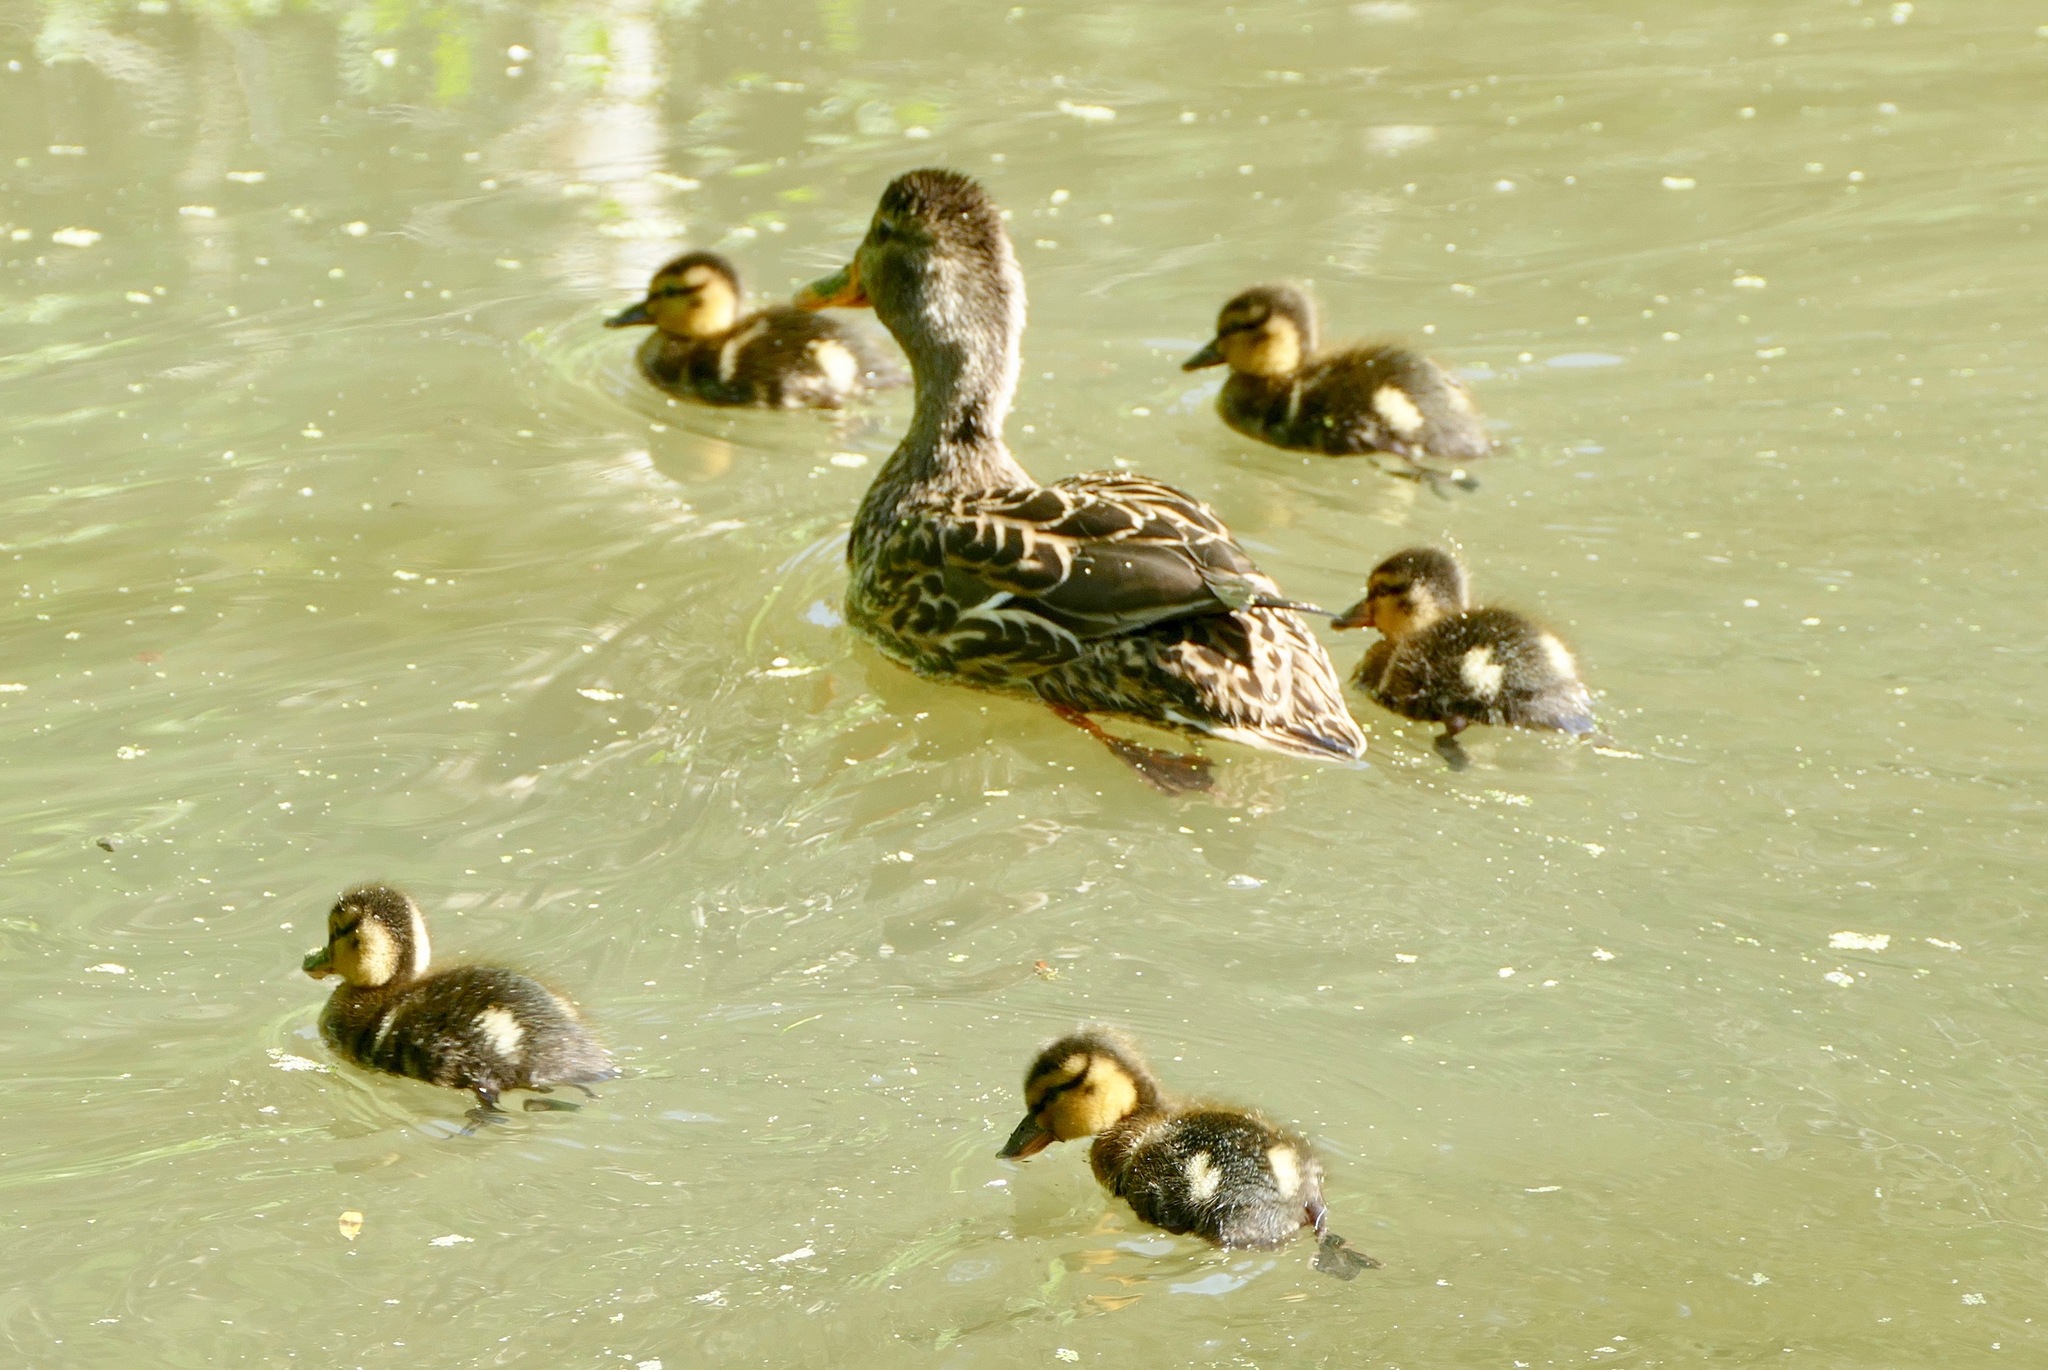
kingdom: Animalia
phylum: Chordata
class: Aves
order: Anseriformes
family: Anatidae
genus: Anas
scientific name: Anas platyrhynchos
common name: Mallard
